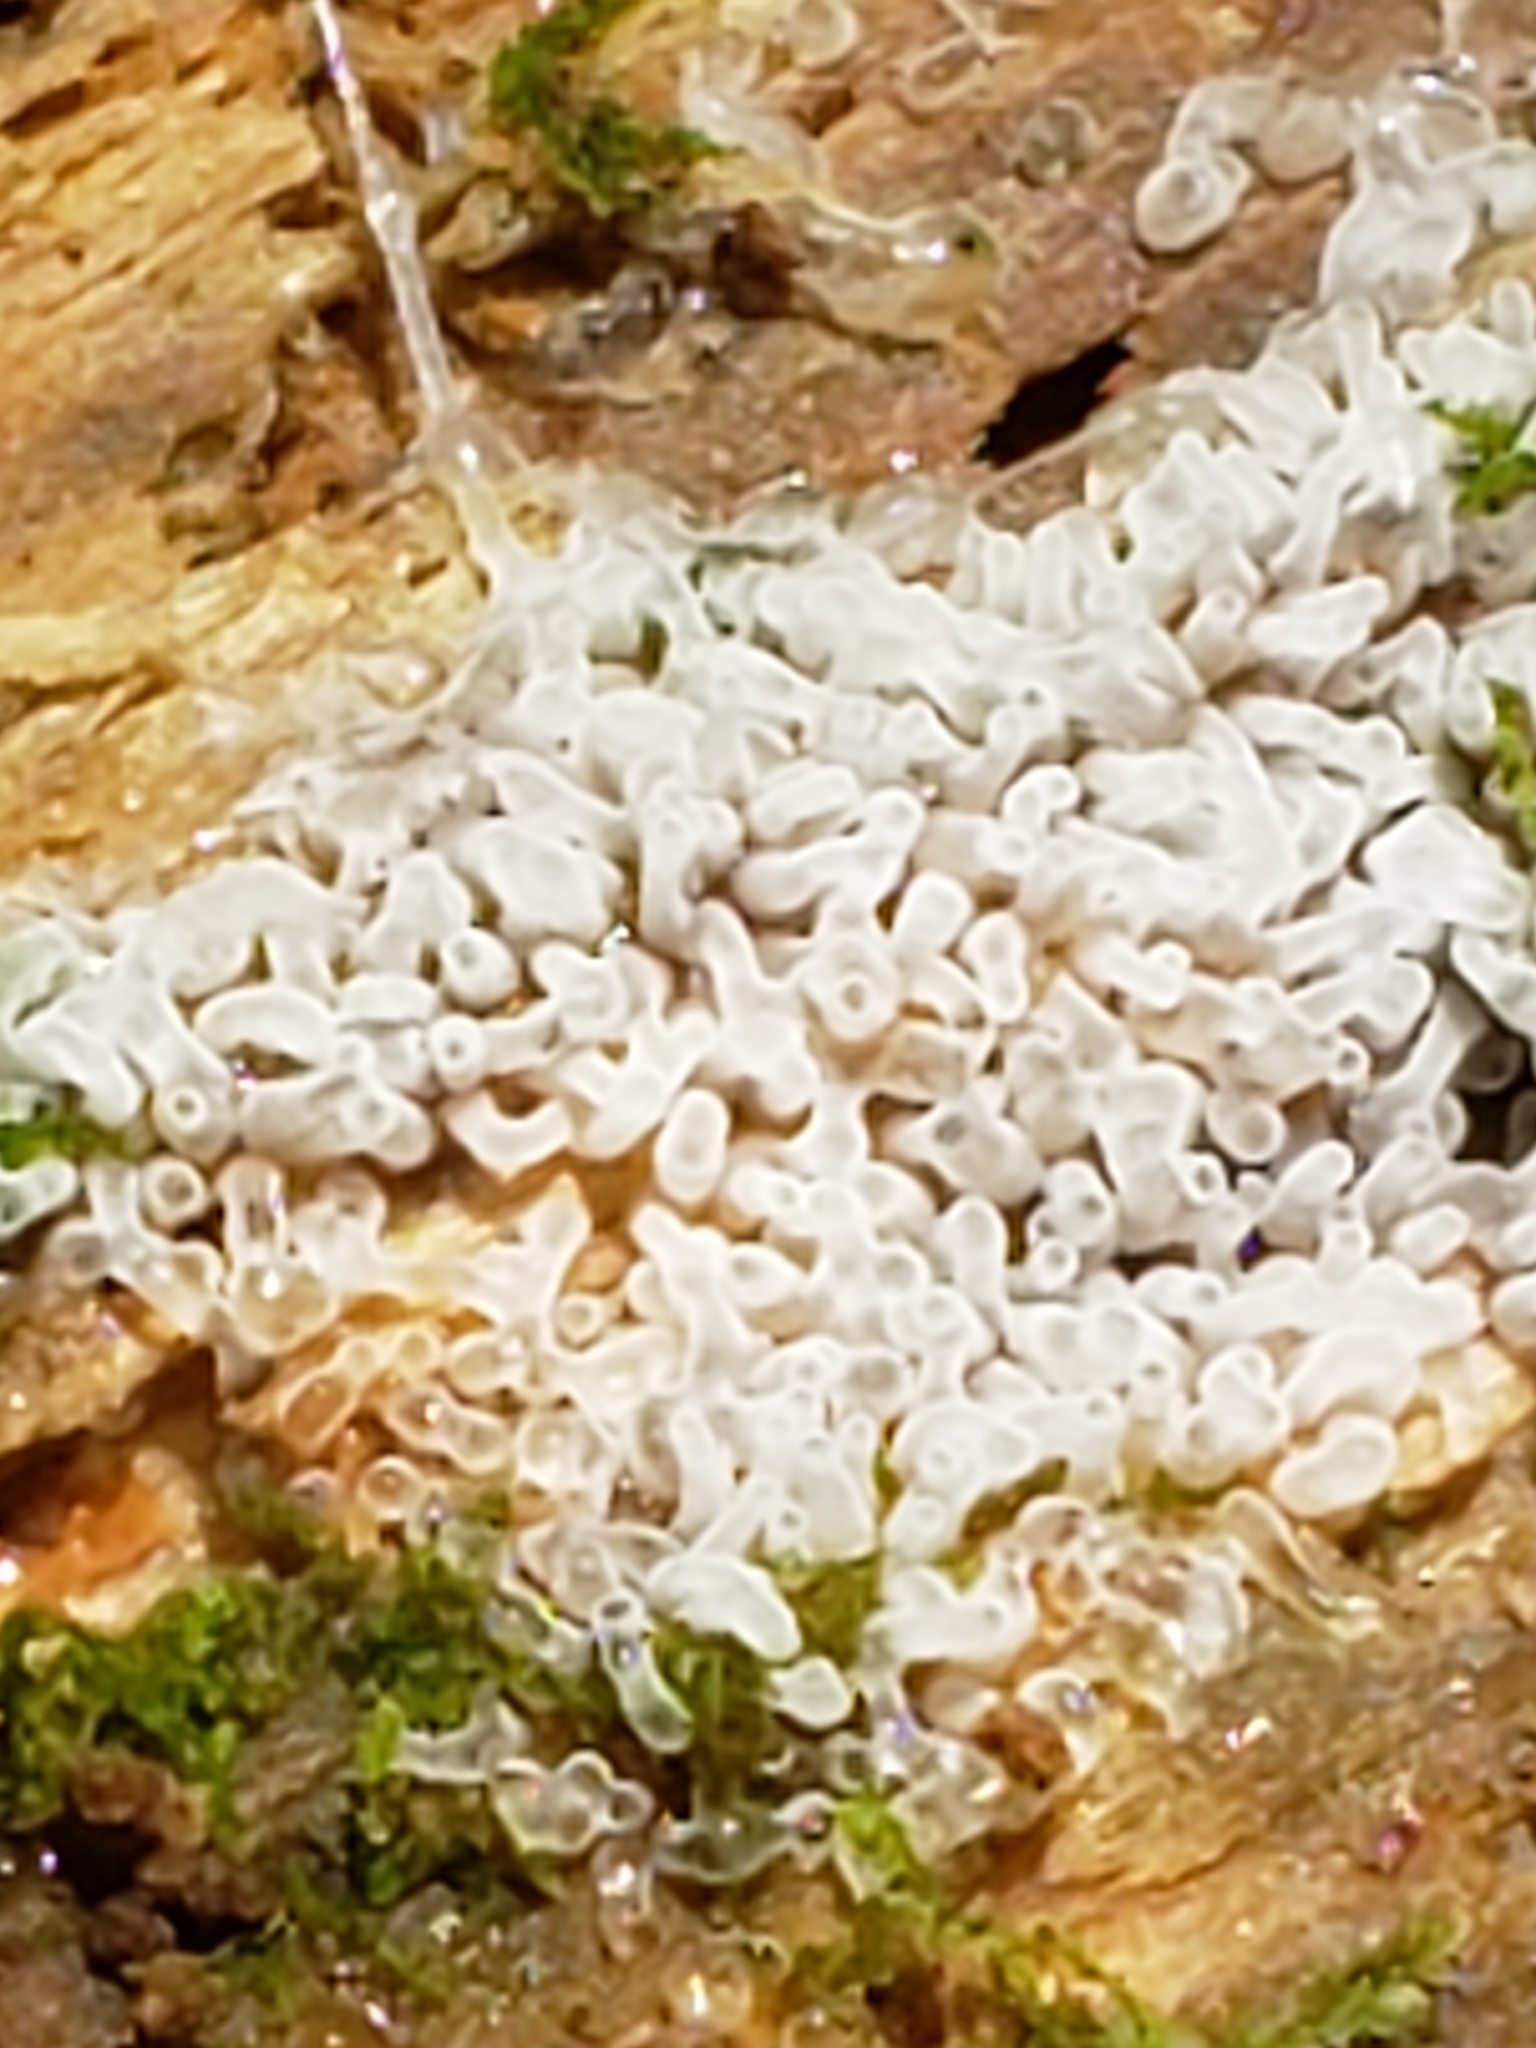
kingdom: Protozoa
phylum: Mycetozoa
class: Protosteliomycetes
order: Ceratiomyxales
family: Ceratiomyxaceae
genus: Ceratiomyxa
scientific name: Ceratiomyxa fruticulosa
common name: Honeycomb coral slime mold
